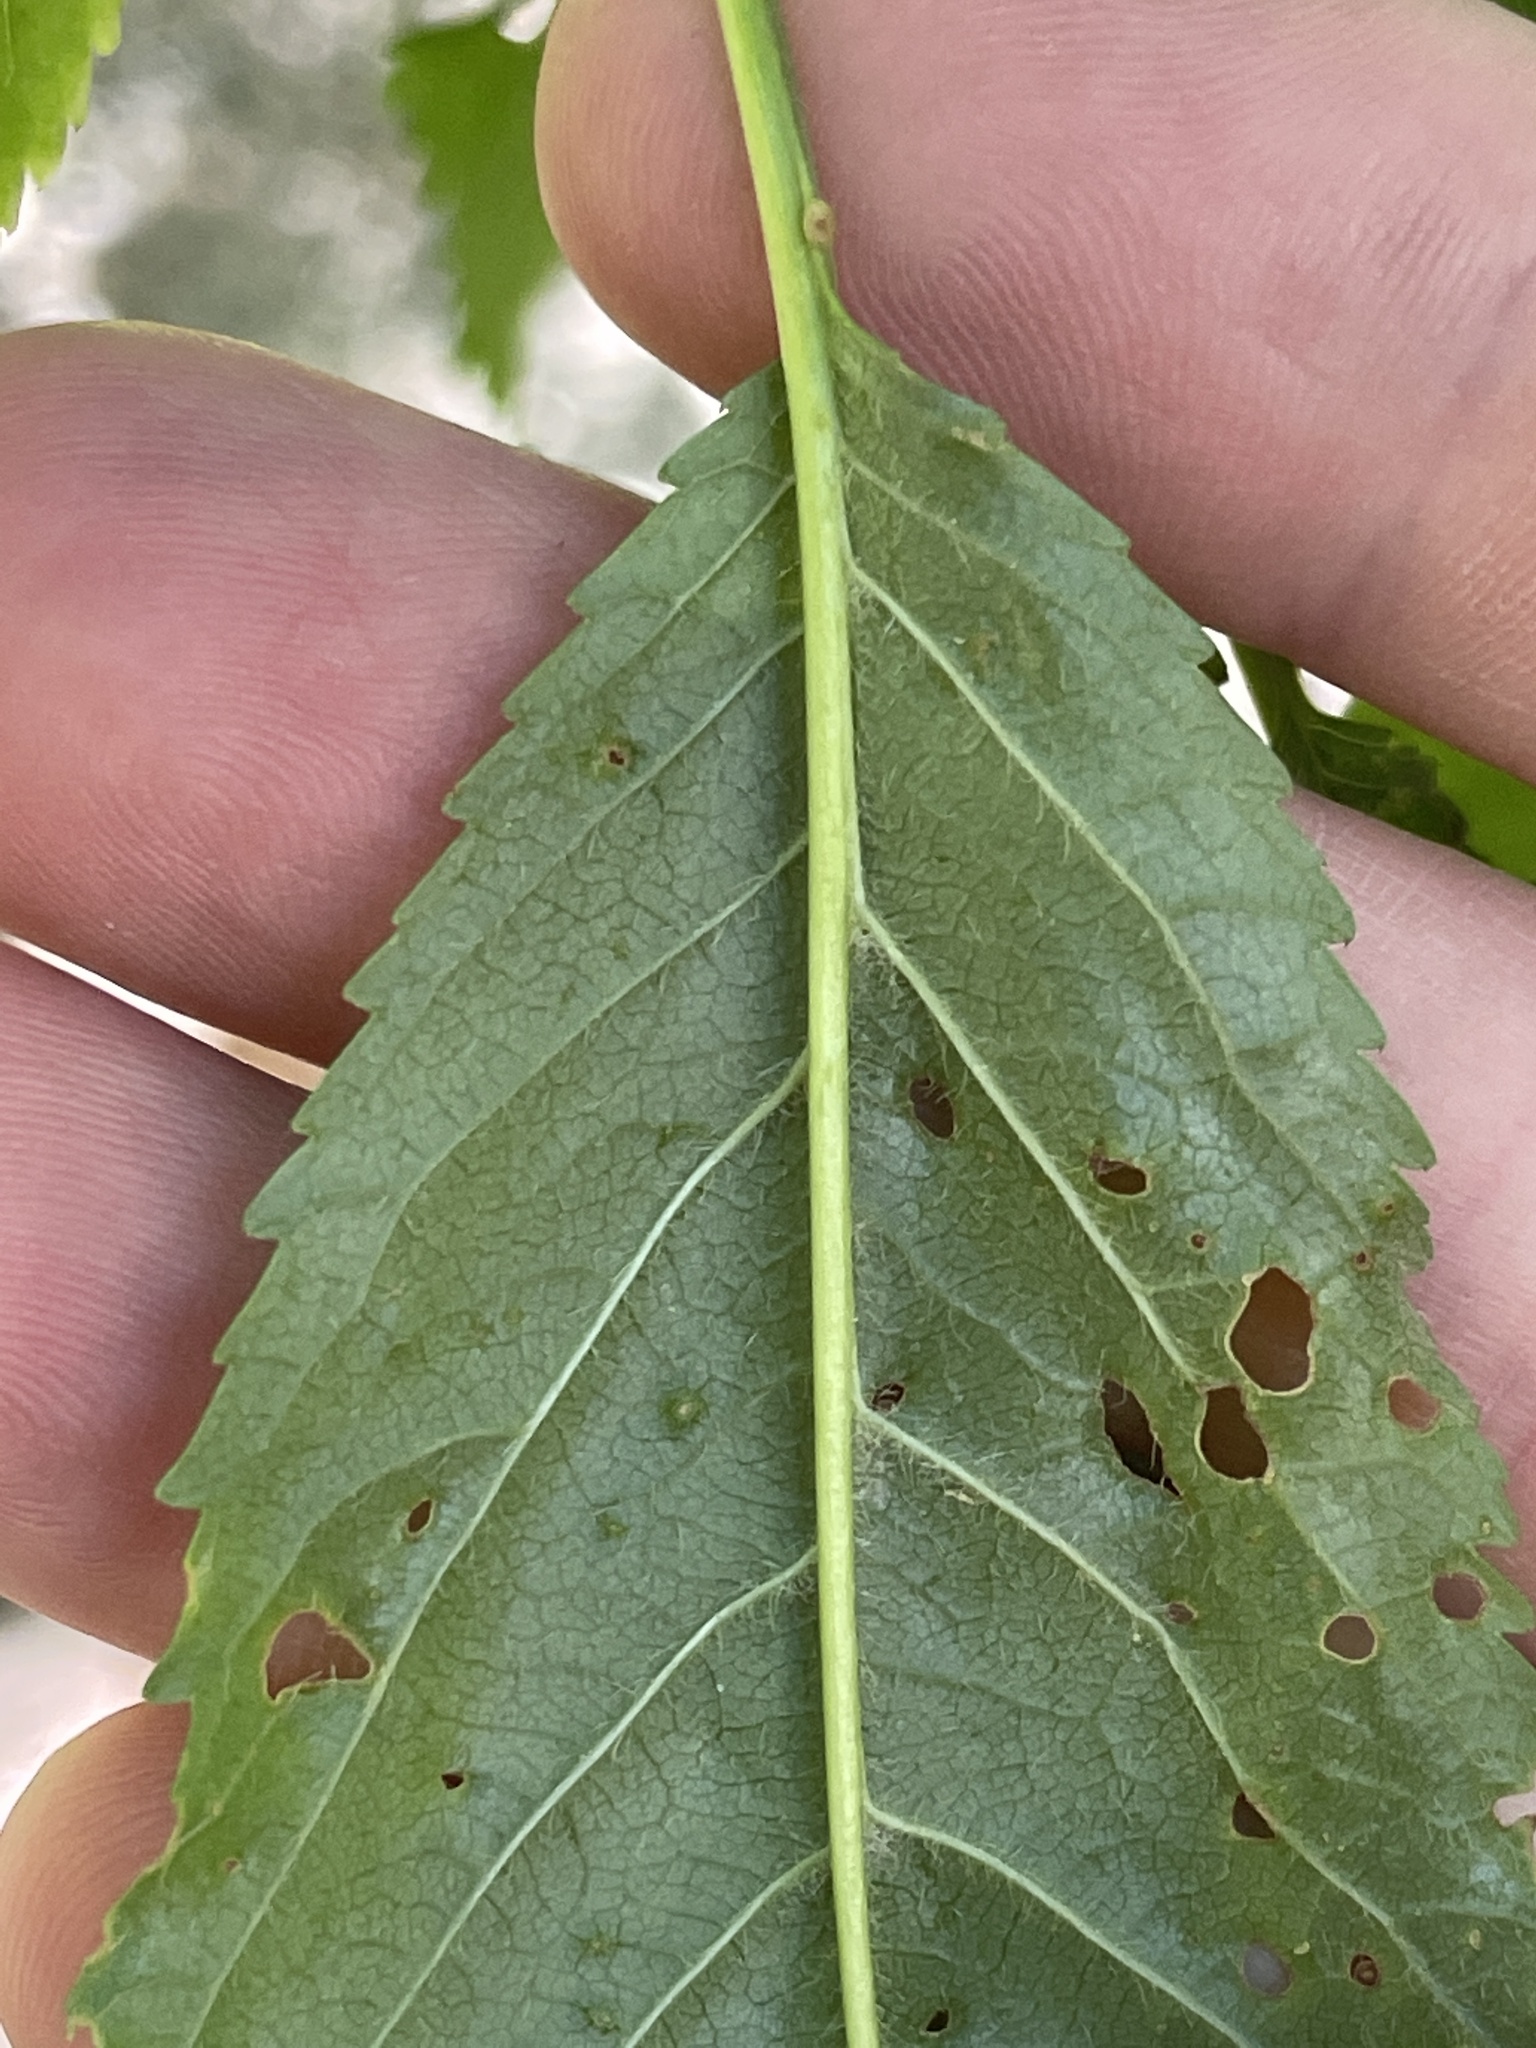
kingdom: Plantae
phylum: Tracheophyta
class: Magnoliopsida
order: Rosales
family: Rosaceae
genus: Prunus
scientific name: Prunus avium
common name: Sweet cherry
